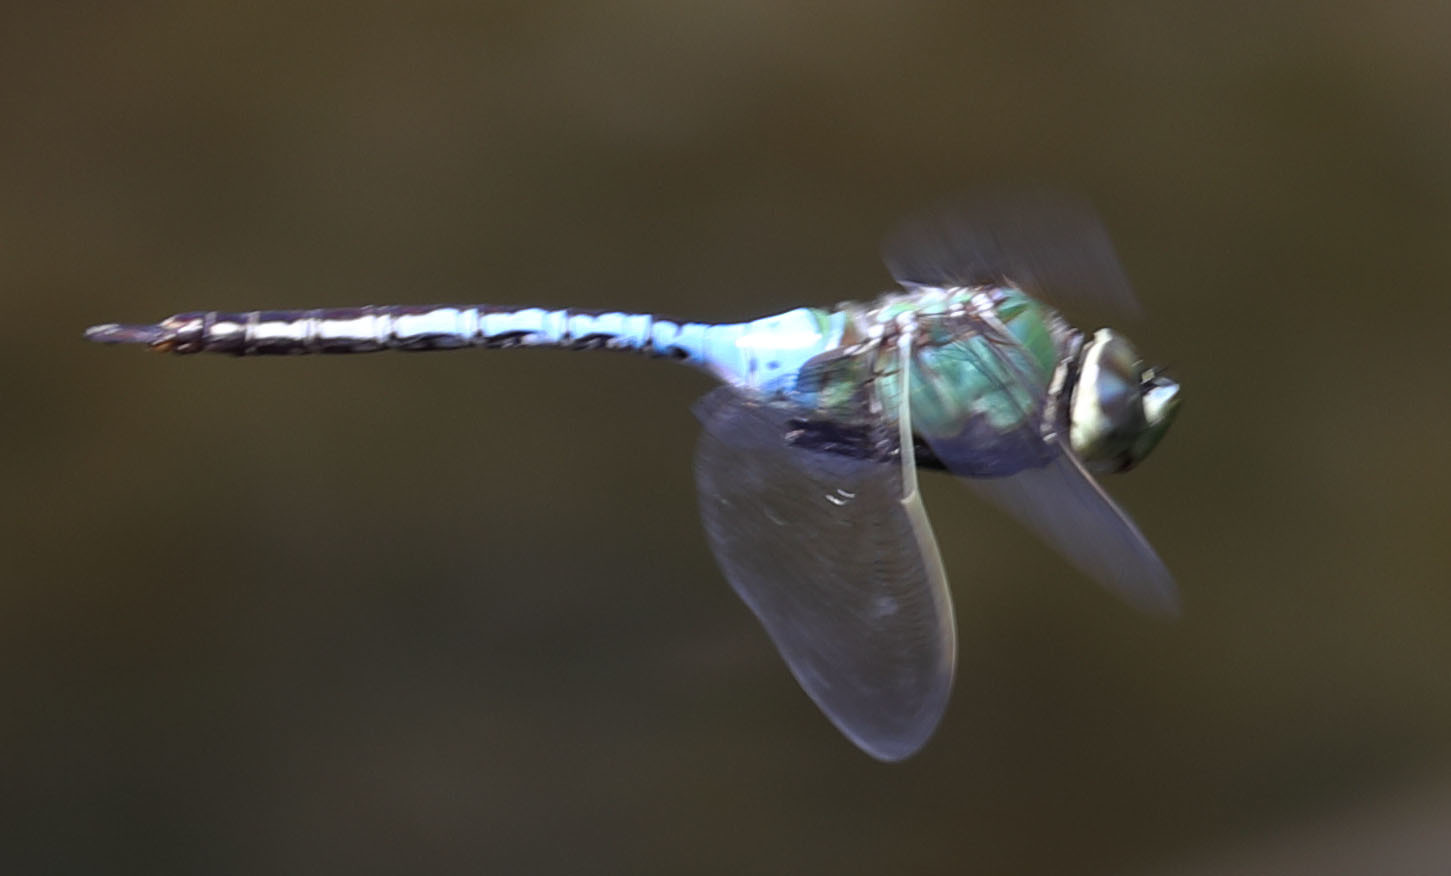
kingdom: Animalia
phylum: Arthropoda
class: Insecta
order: Odonata
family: Aeshnidae
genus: Anax
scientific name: Anax junius
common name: Common green darner
